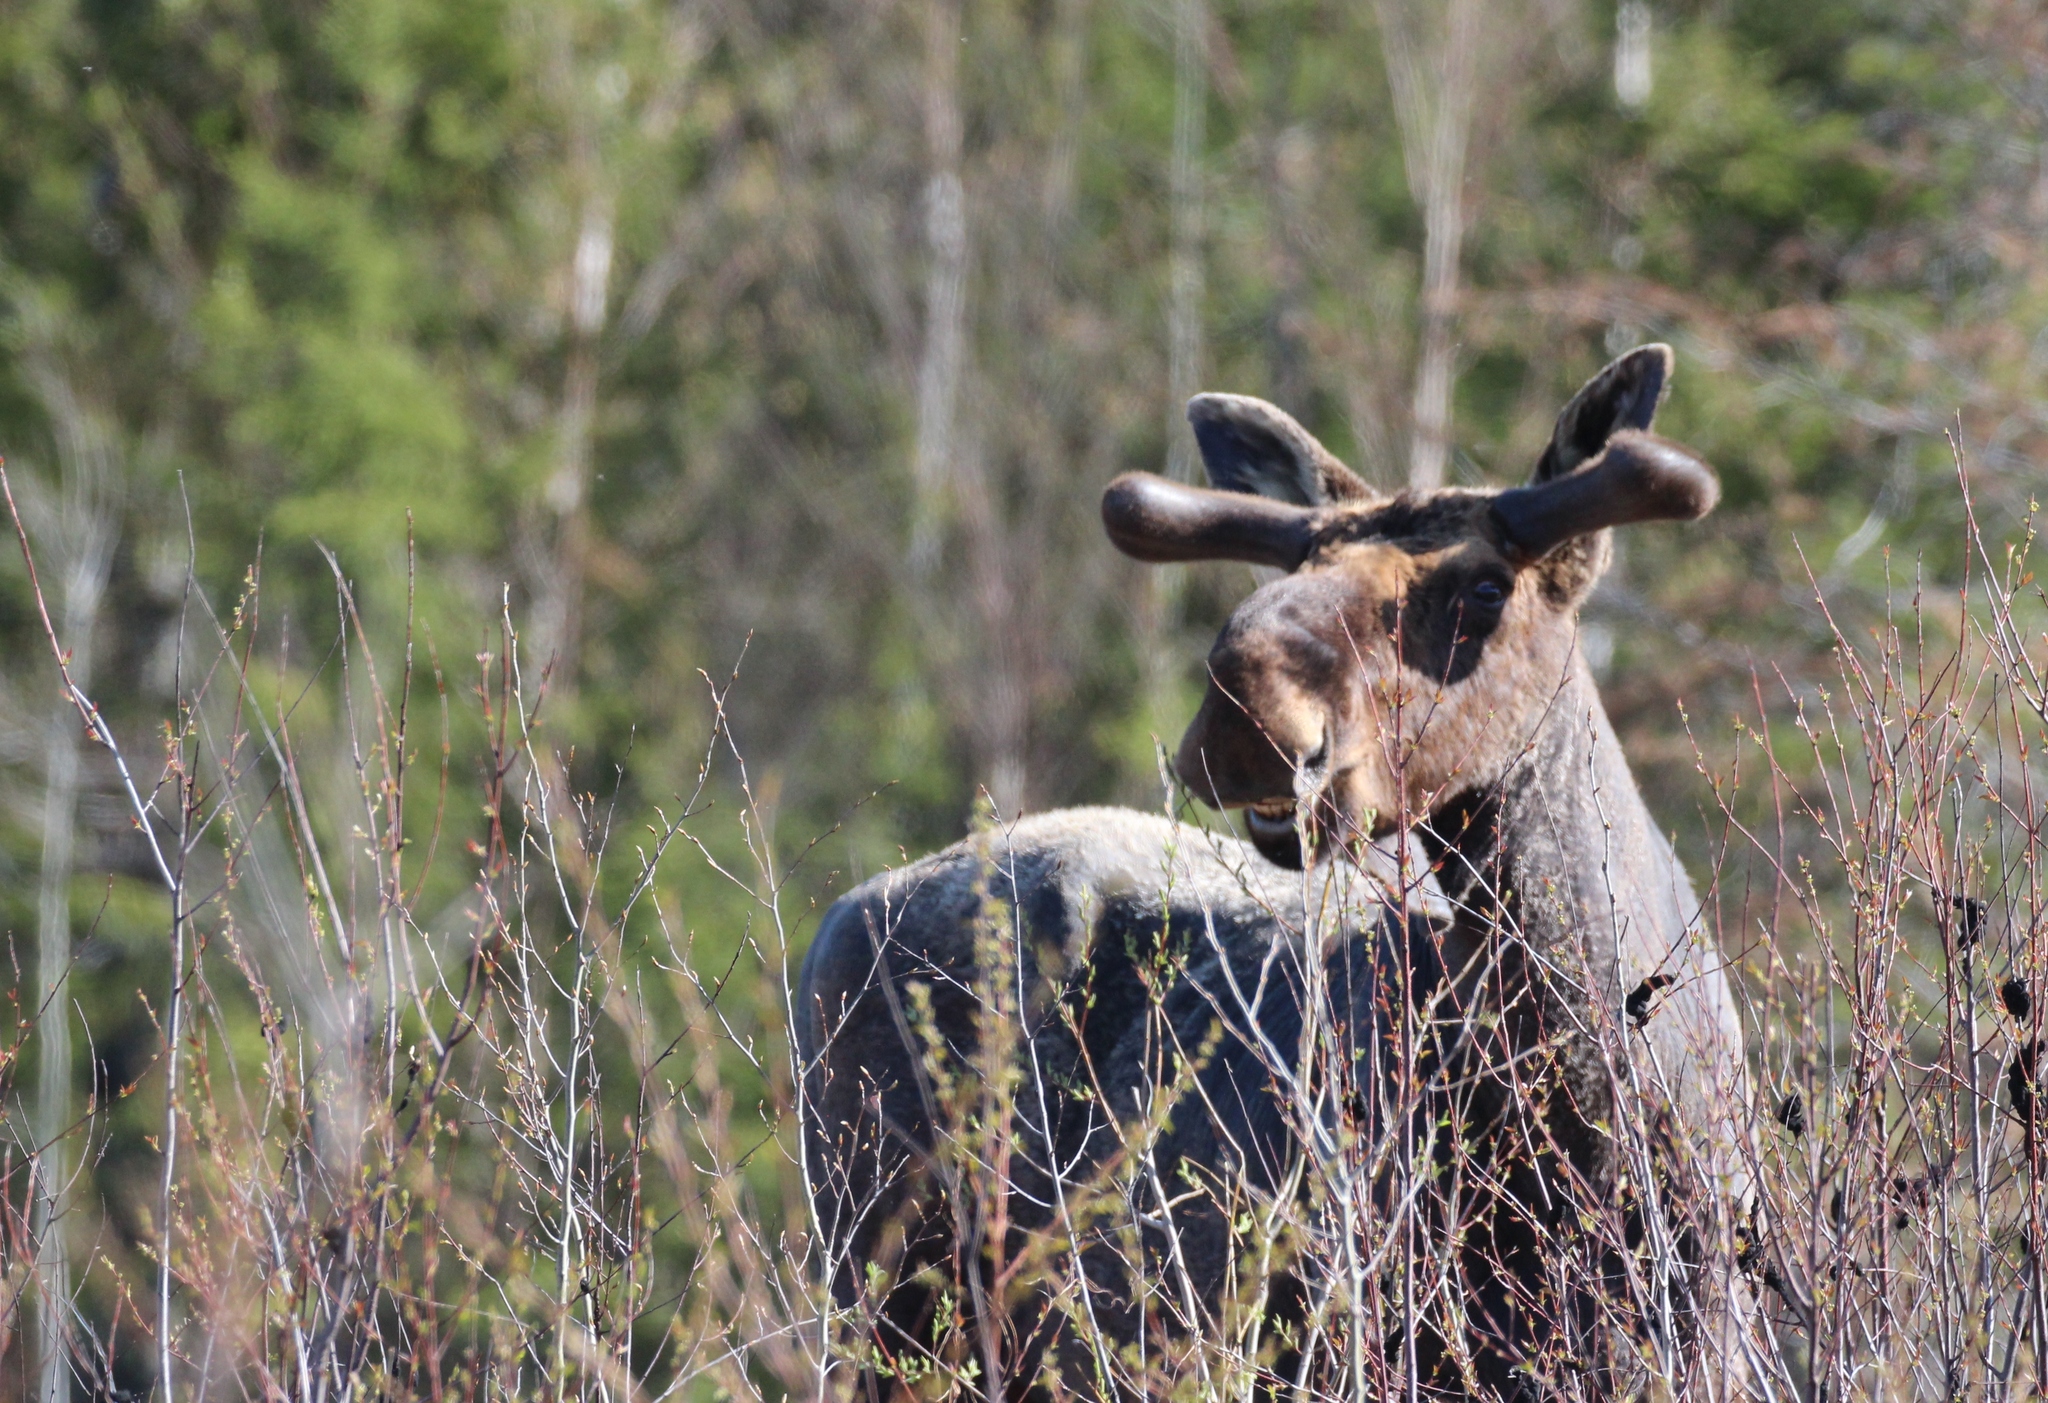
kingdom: Animalia
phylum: Chordata
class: Mammalia
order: Artiodactyla
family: Cervidae
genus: Alces
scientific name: Alces alces
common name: Moose
